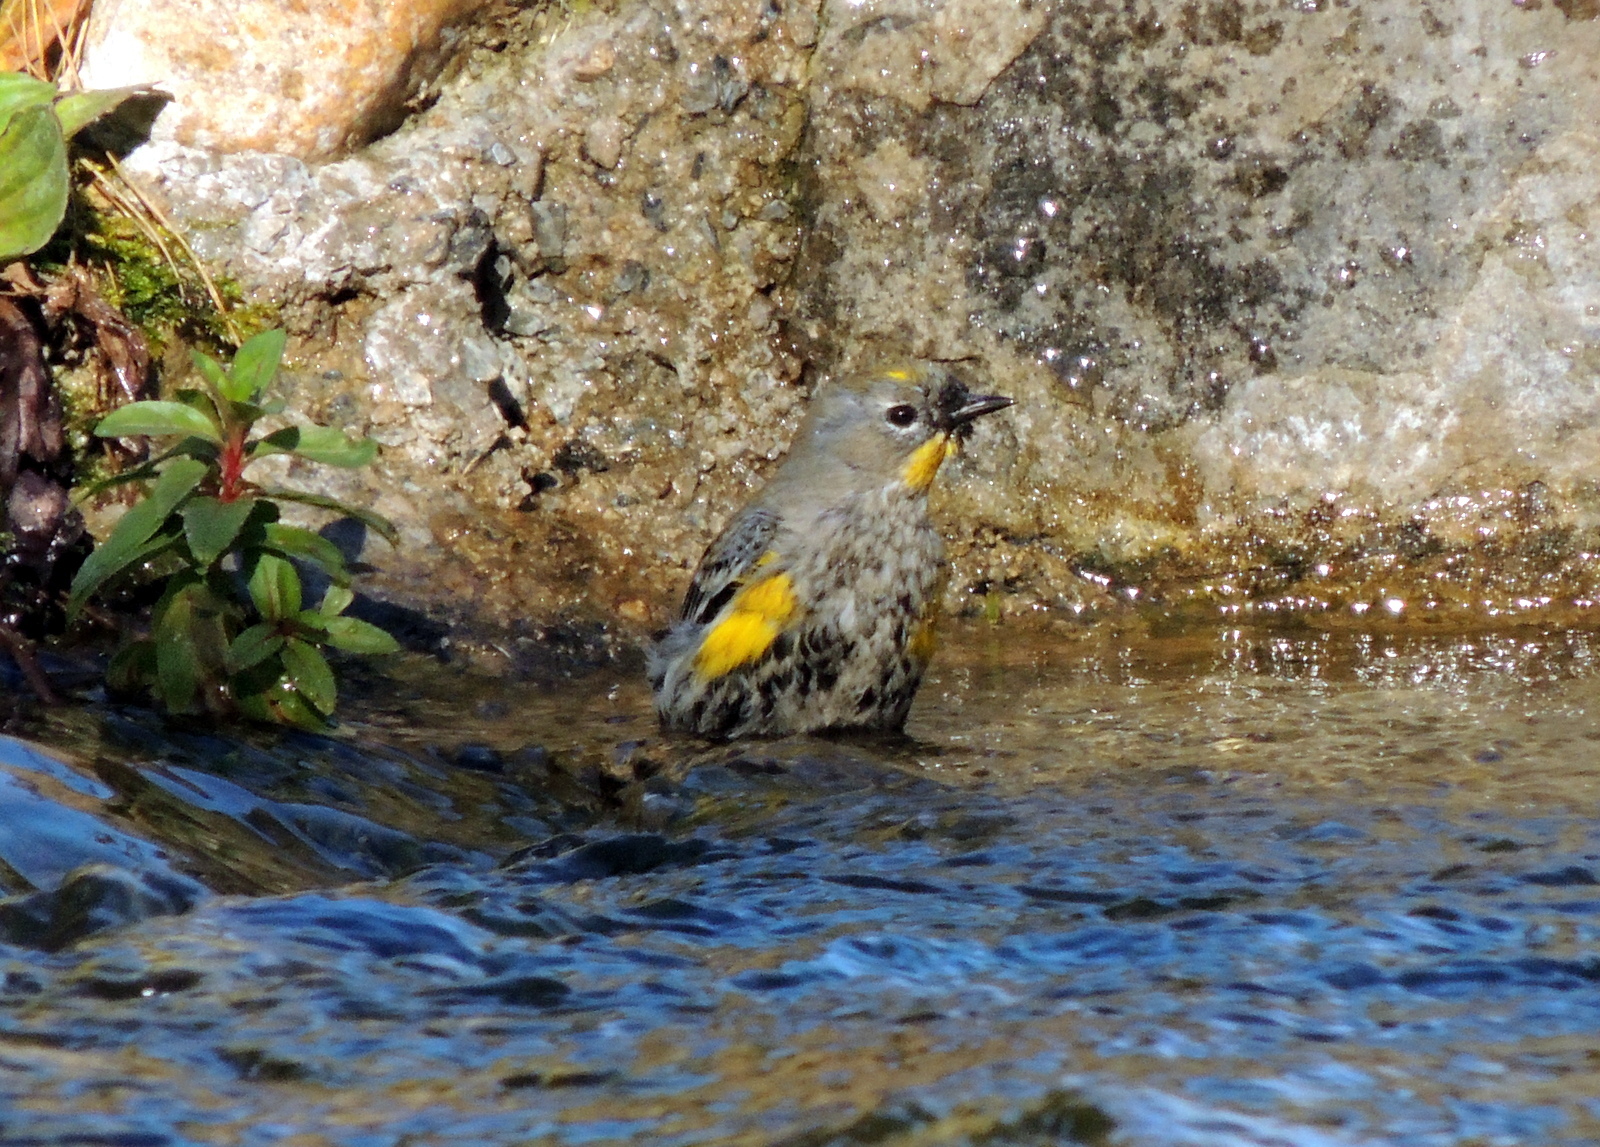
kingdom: Animalia
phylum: Chordata
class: Aves
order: Passeriformes
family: Parulidae
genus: Setophaga
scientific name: Setophaga auduboni
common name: Audubon's warbler
